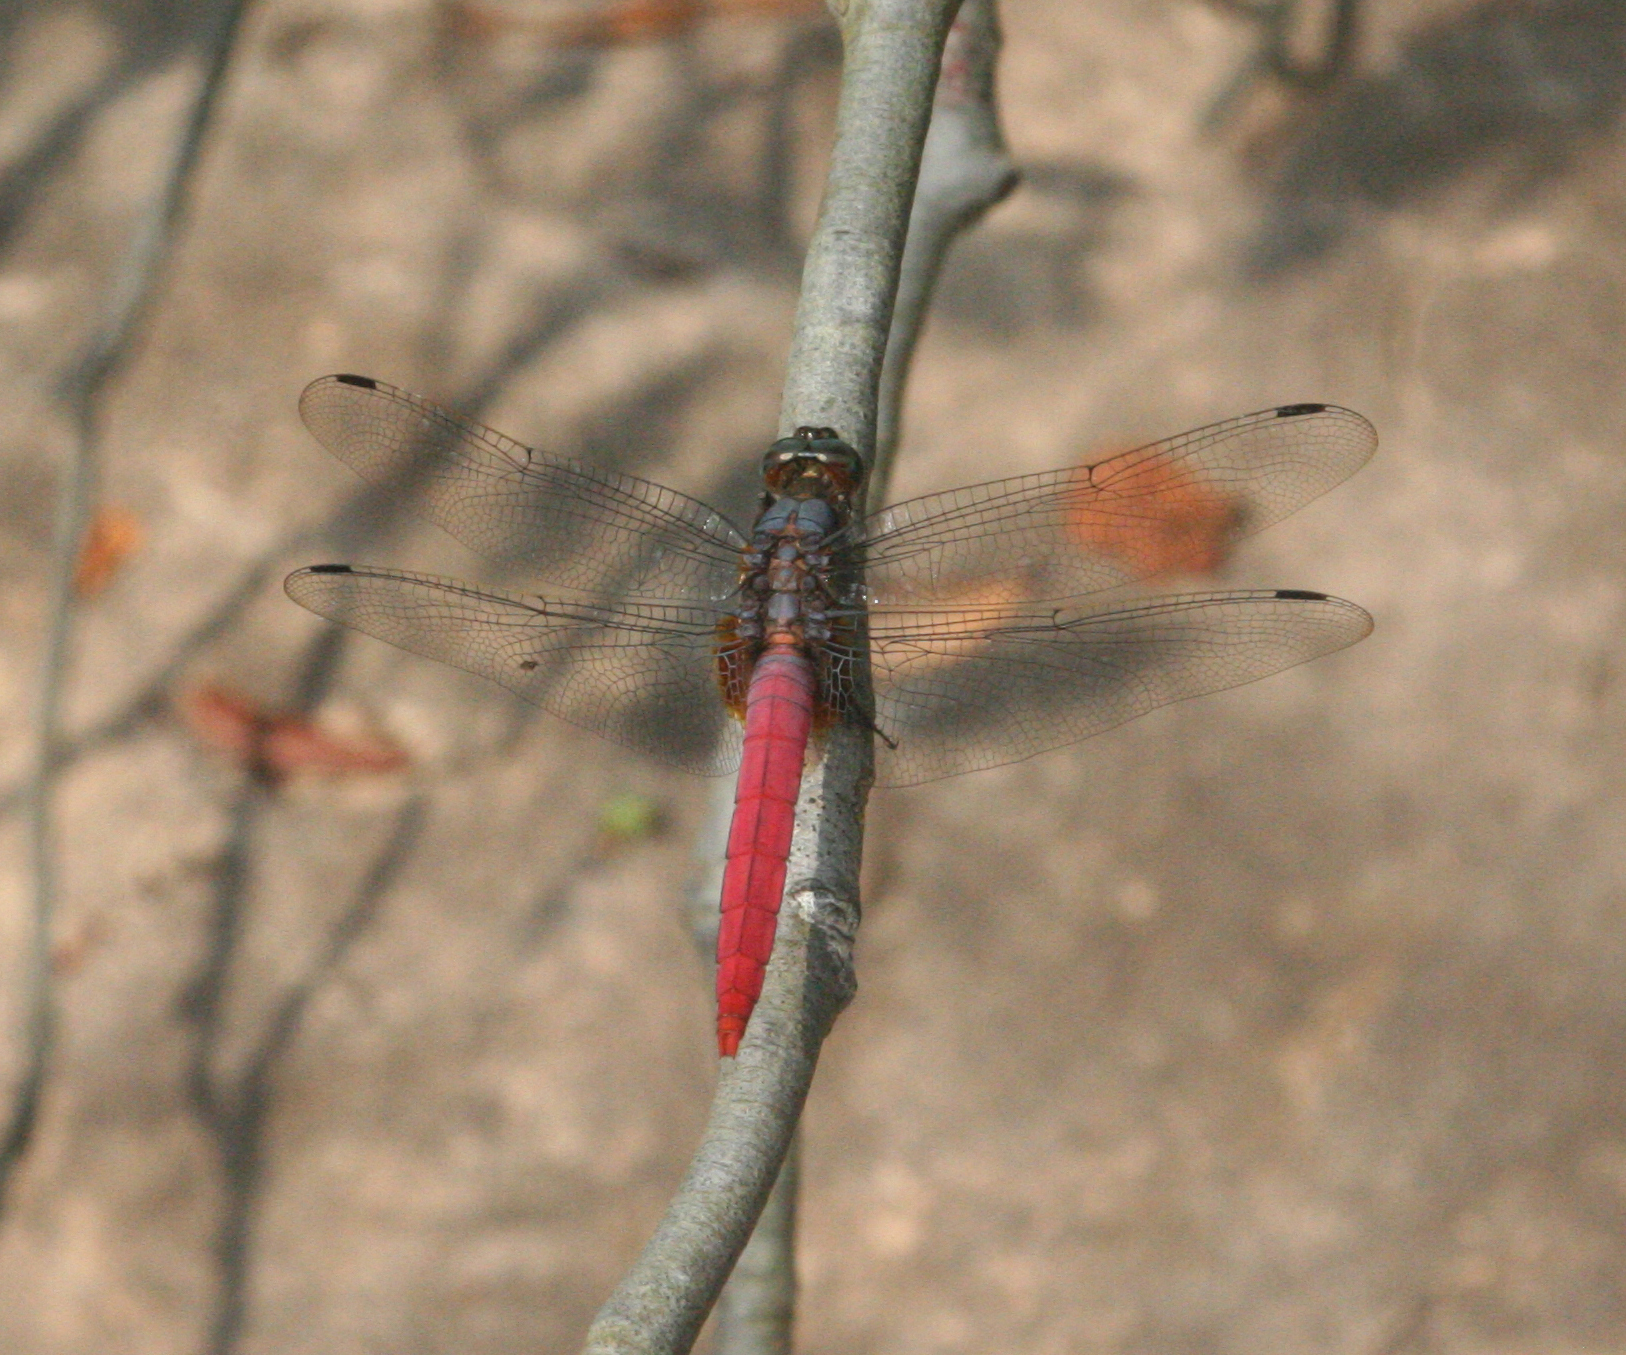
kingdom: Animalia
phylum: Arthropoda
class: Insecta
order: Odonata
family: Libellulidae
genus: Orthetrum
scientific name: Orthetrum pruinosum
